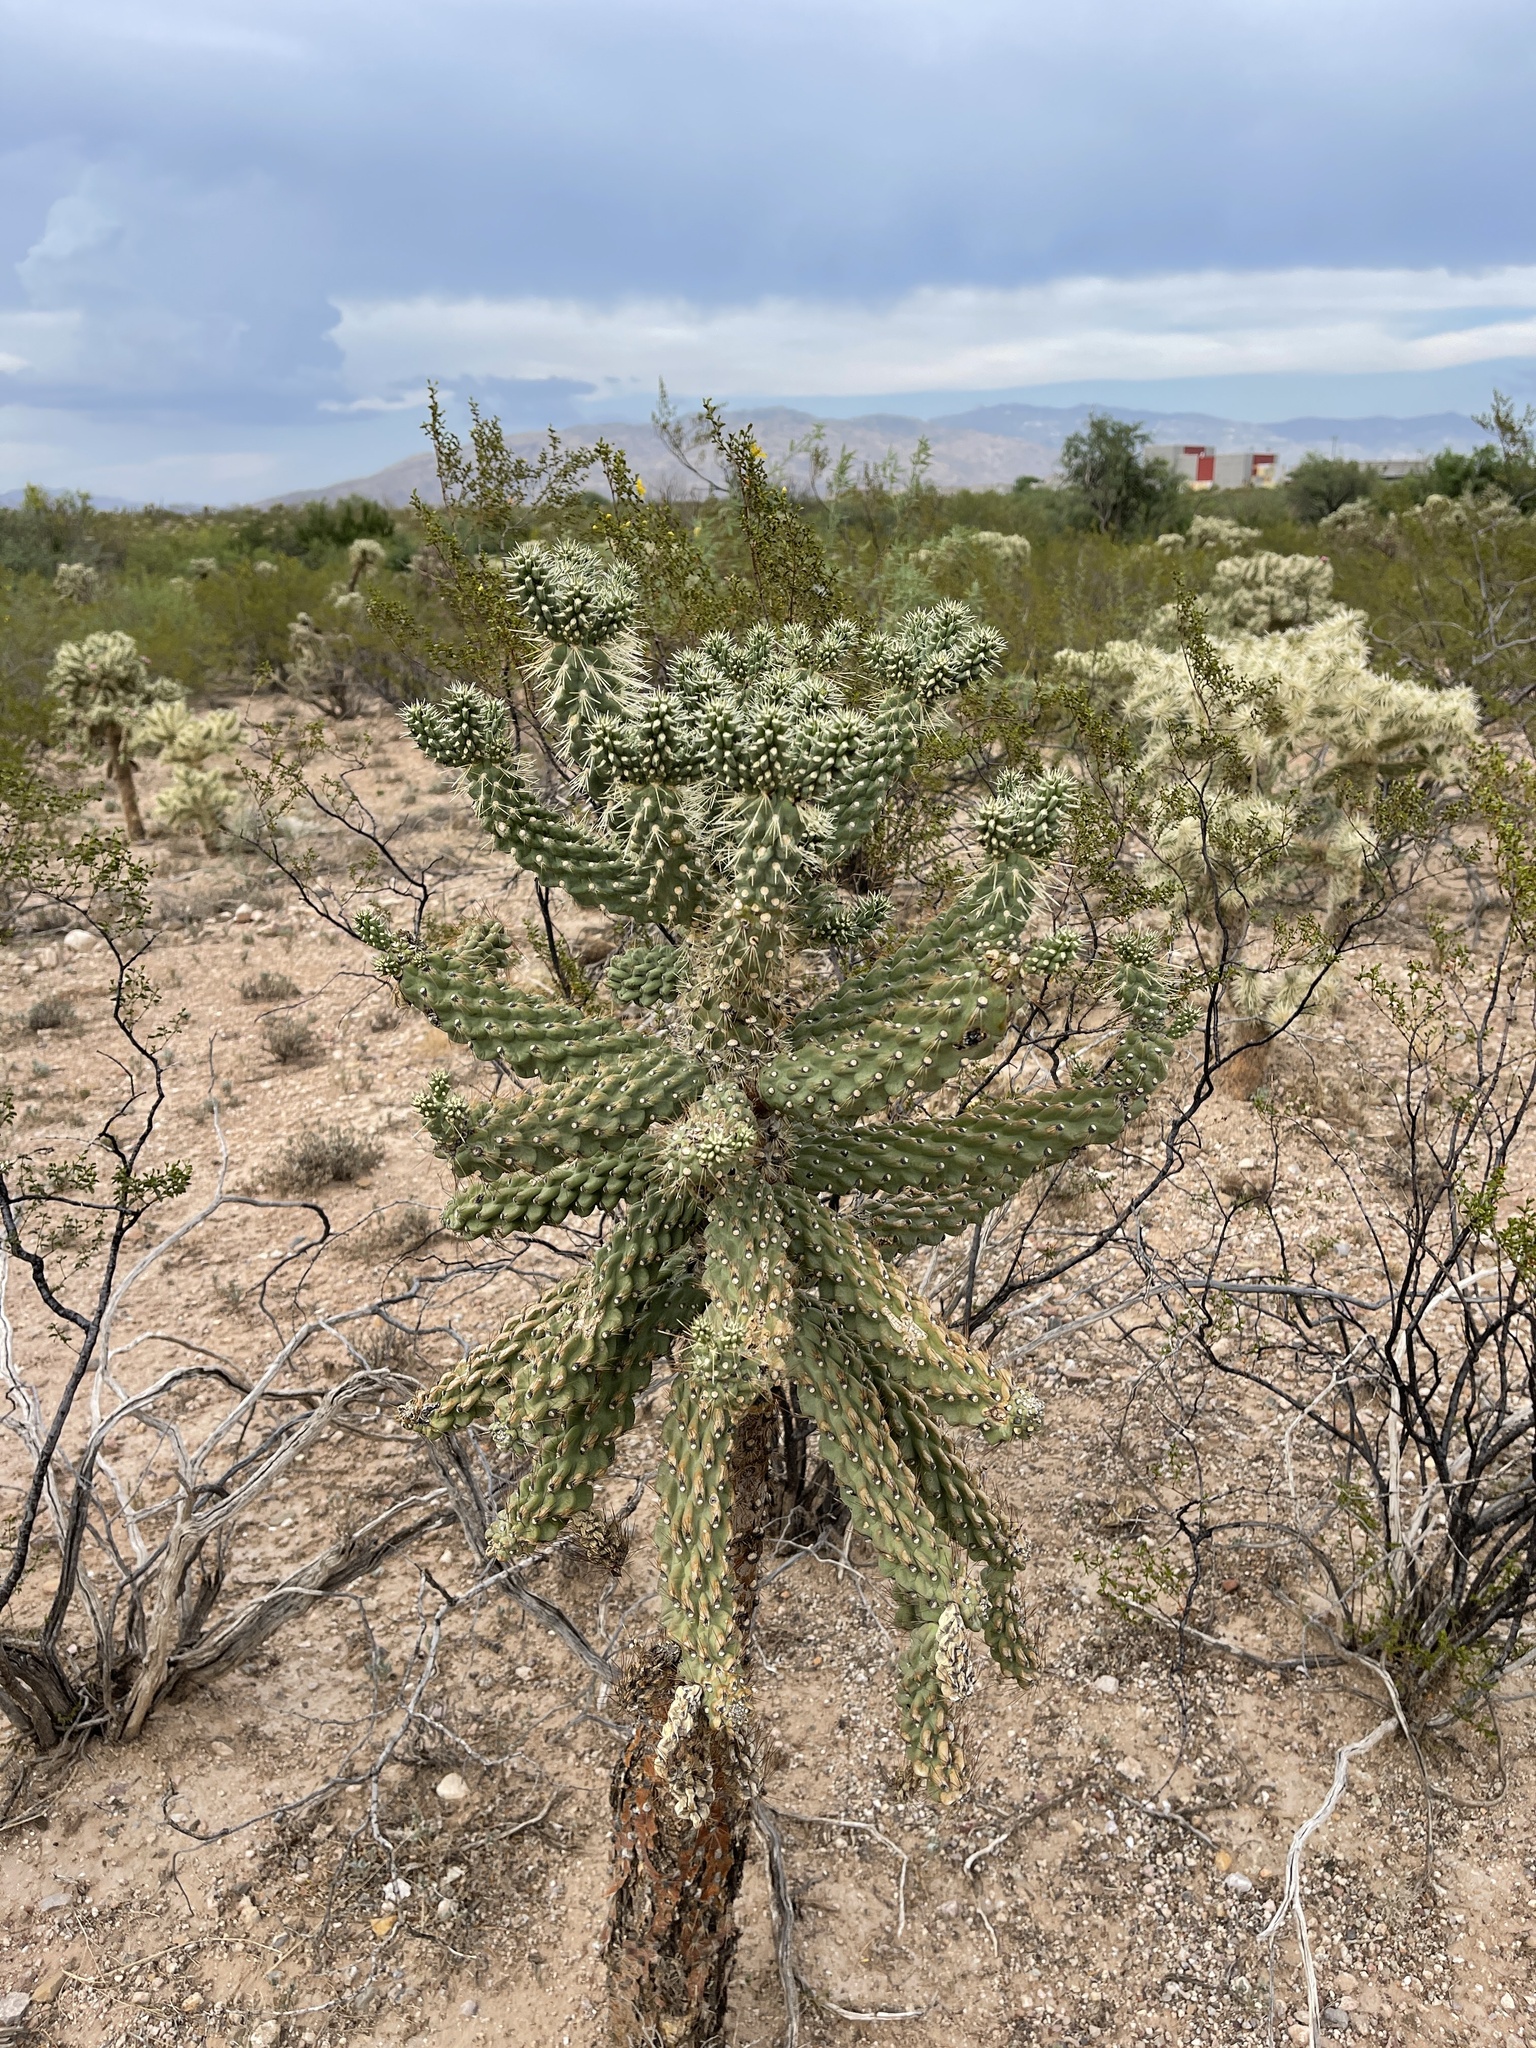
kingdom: Plantae
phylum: Tracheophyta
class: Magnoliopsida
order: Caryophyllales
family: Cactaceae
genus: Cylindropuntia
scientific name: Cylindropuntia fulgida
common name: Jumping cholla
